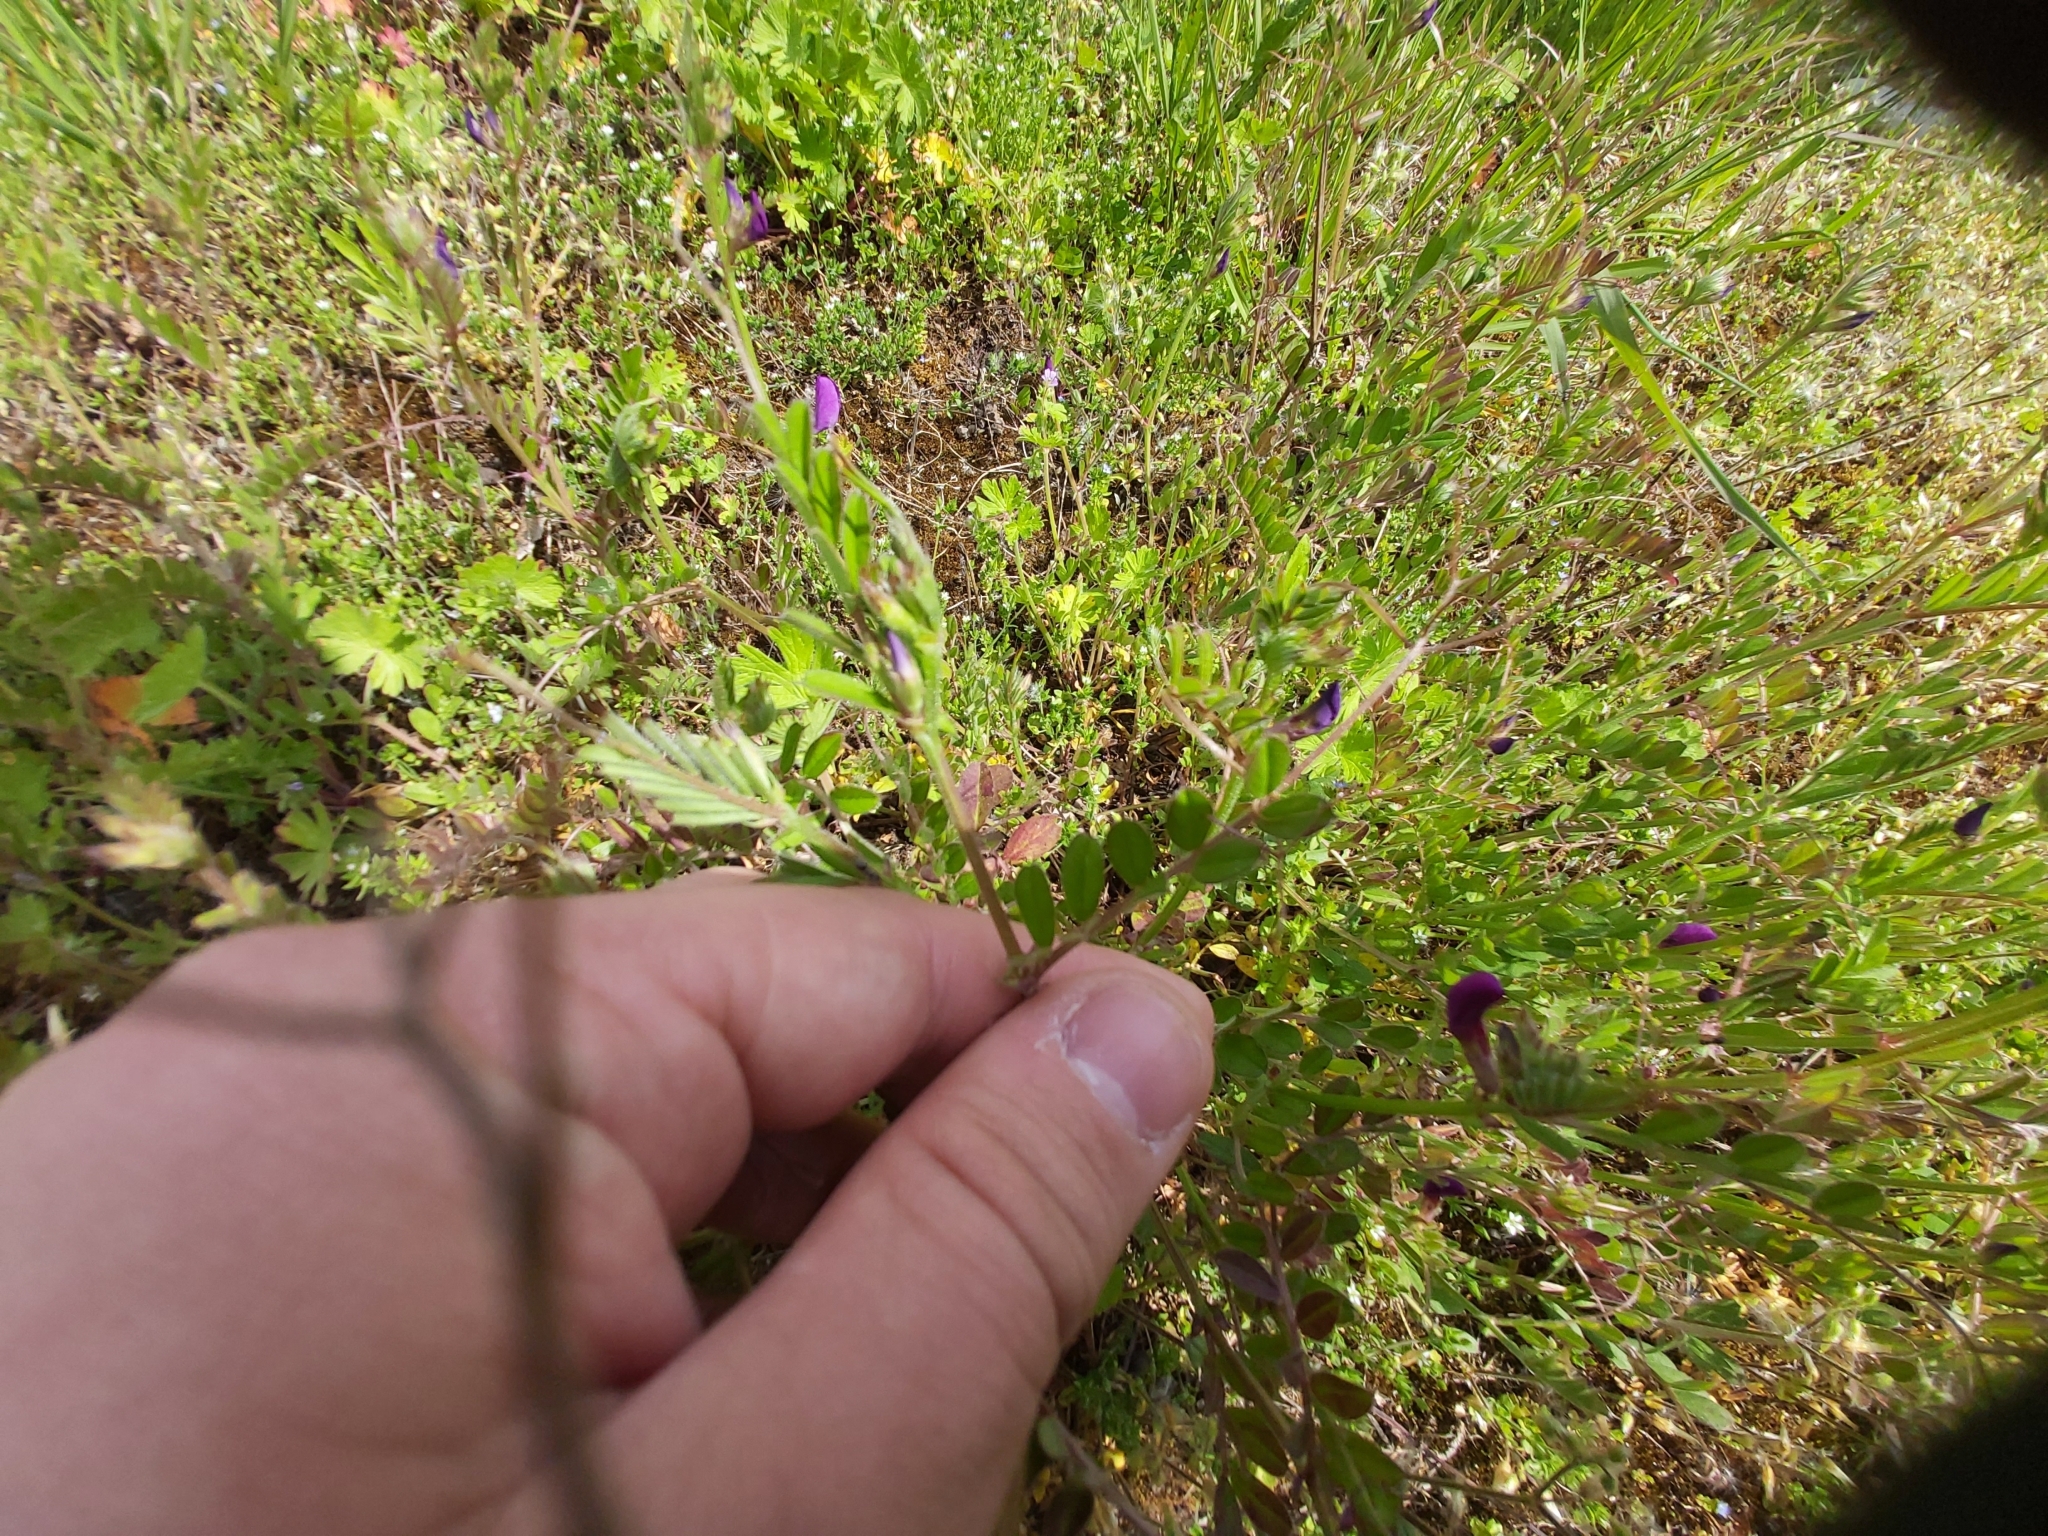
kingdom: Plantae
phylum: Tracheophyta
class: Magnoliopsida
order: Fabales
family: Fabaceae
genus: Vicia
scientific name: Vicia sativa
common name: Garden vetch
